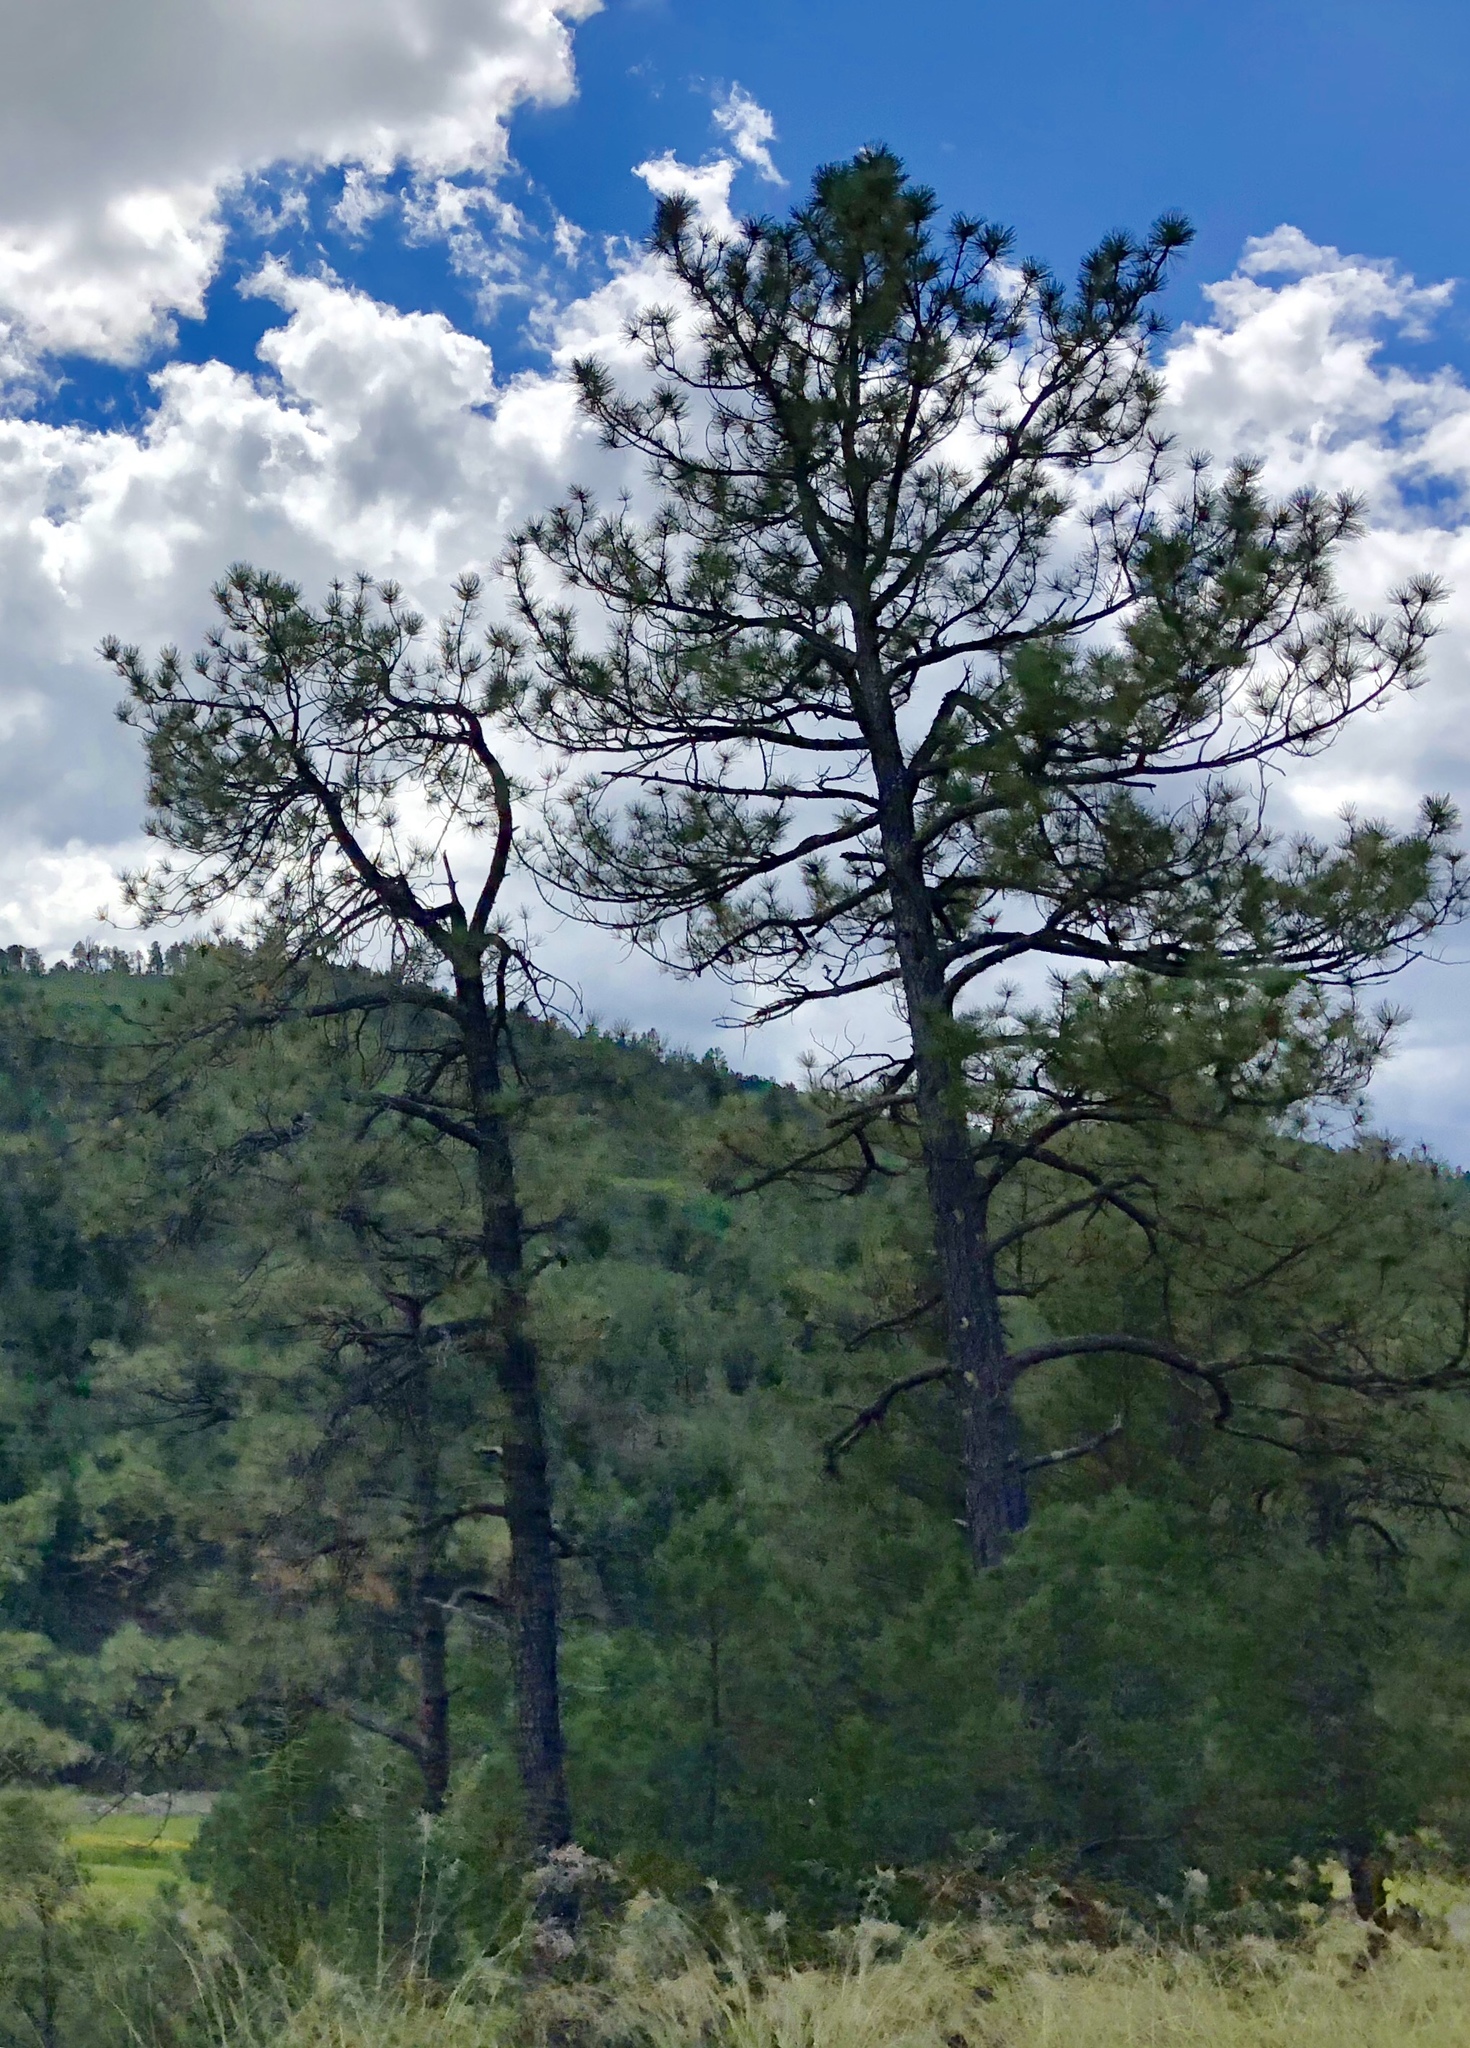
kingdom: Plantae
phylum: Tracheophyta
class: Pinopsida
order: Pinales
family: Pinaceae
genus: Pinus
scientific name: Pinus ponderosa
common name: Western yellow-pine
